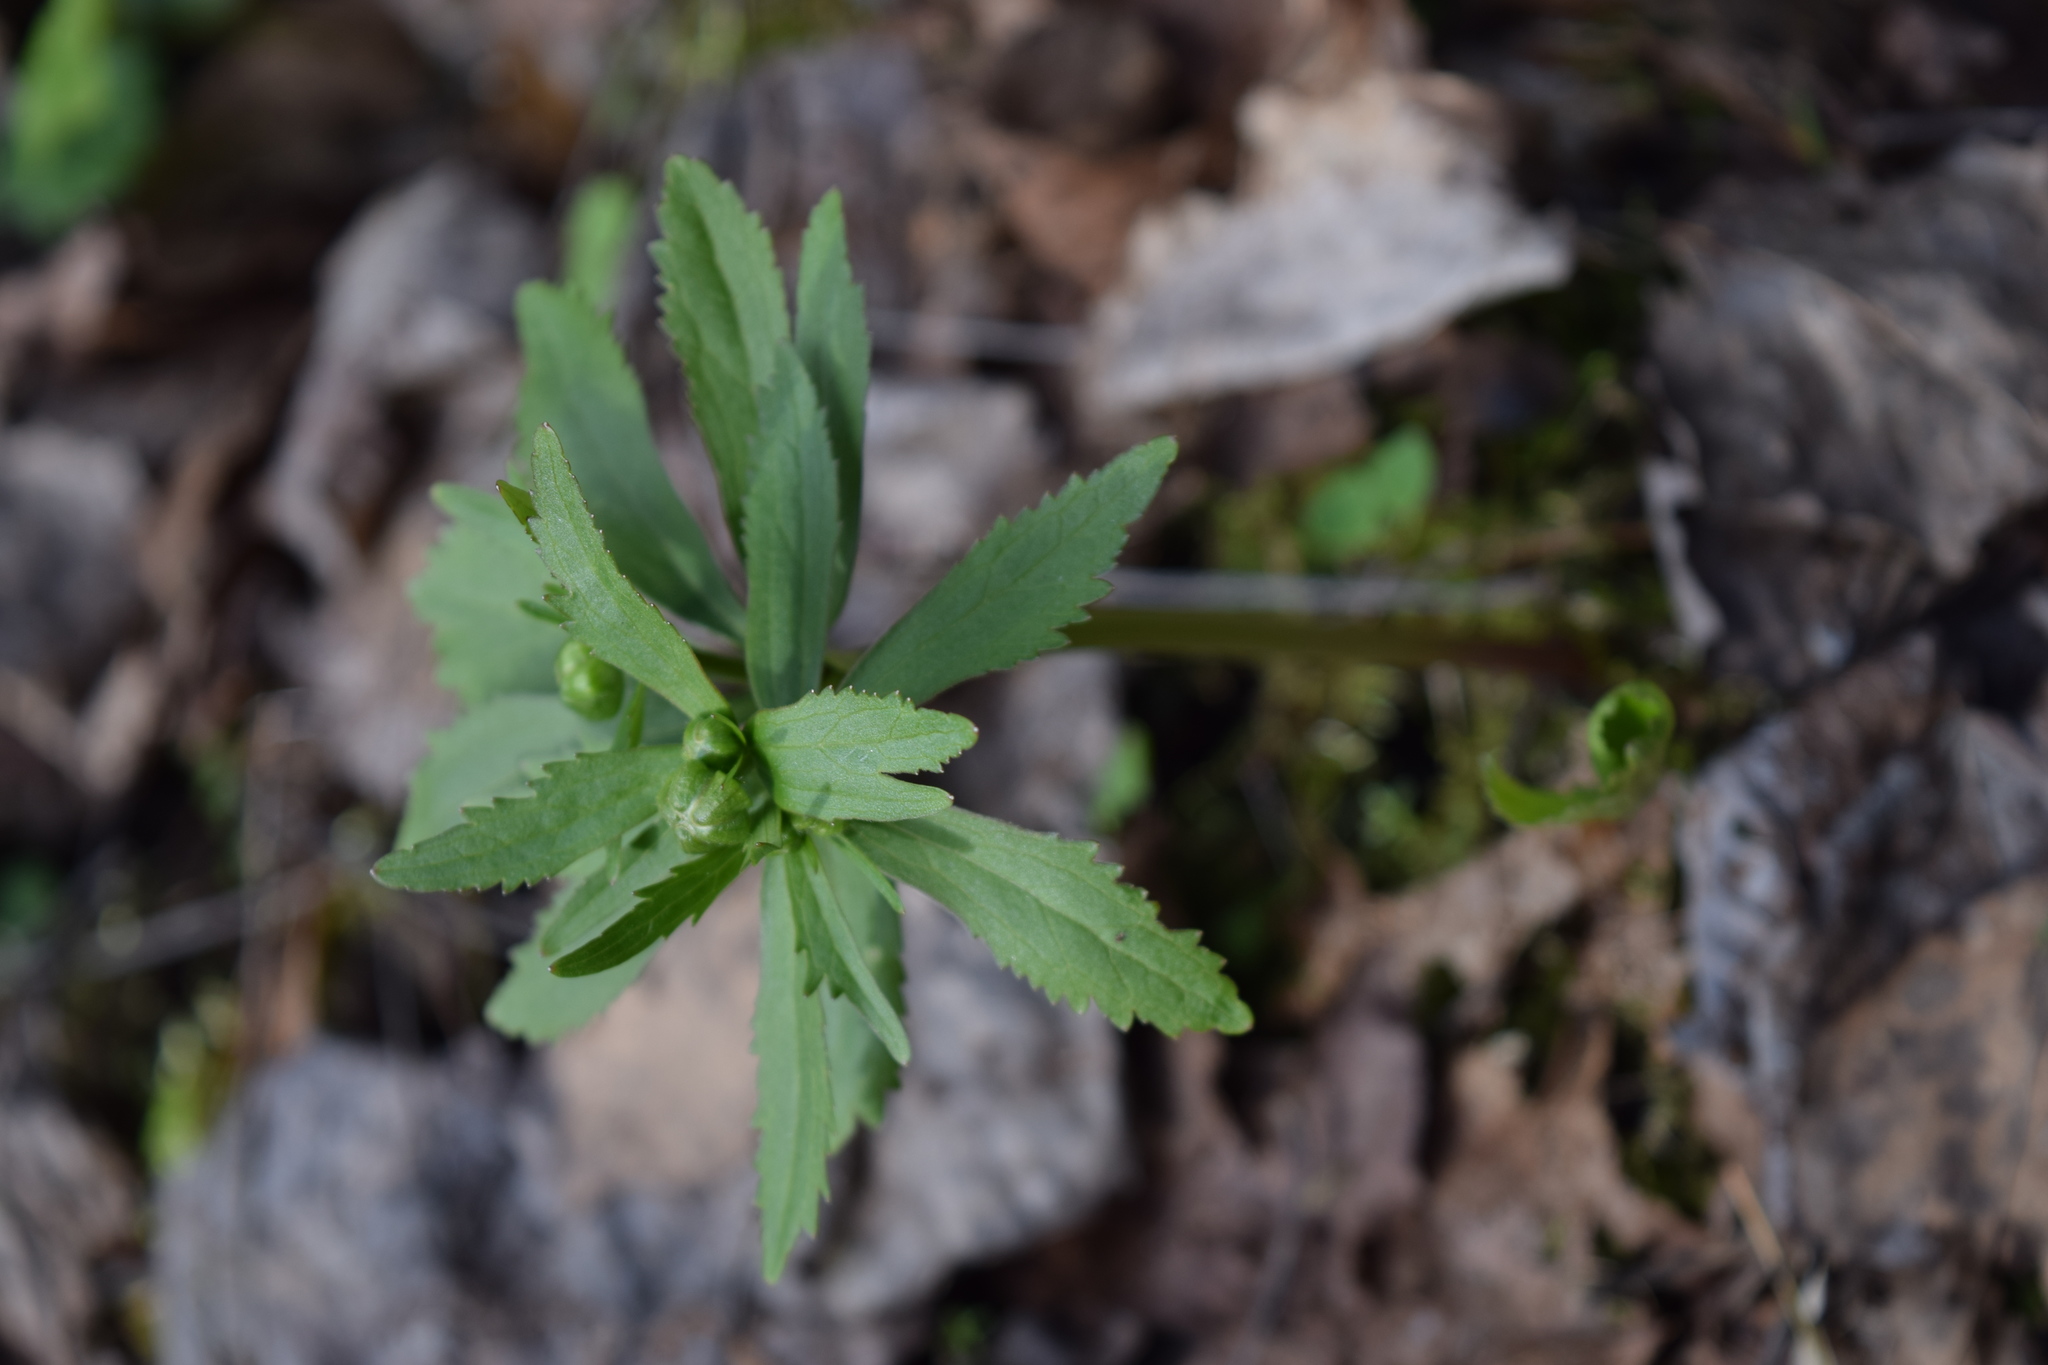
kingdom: Plantae
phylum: Tracheophyta
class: Magnoliopsida
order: Ranunculales
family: Ranunculaceae
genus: Ranunculus
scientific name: Ranunculus cassubicus
